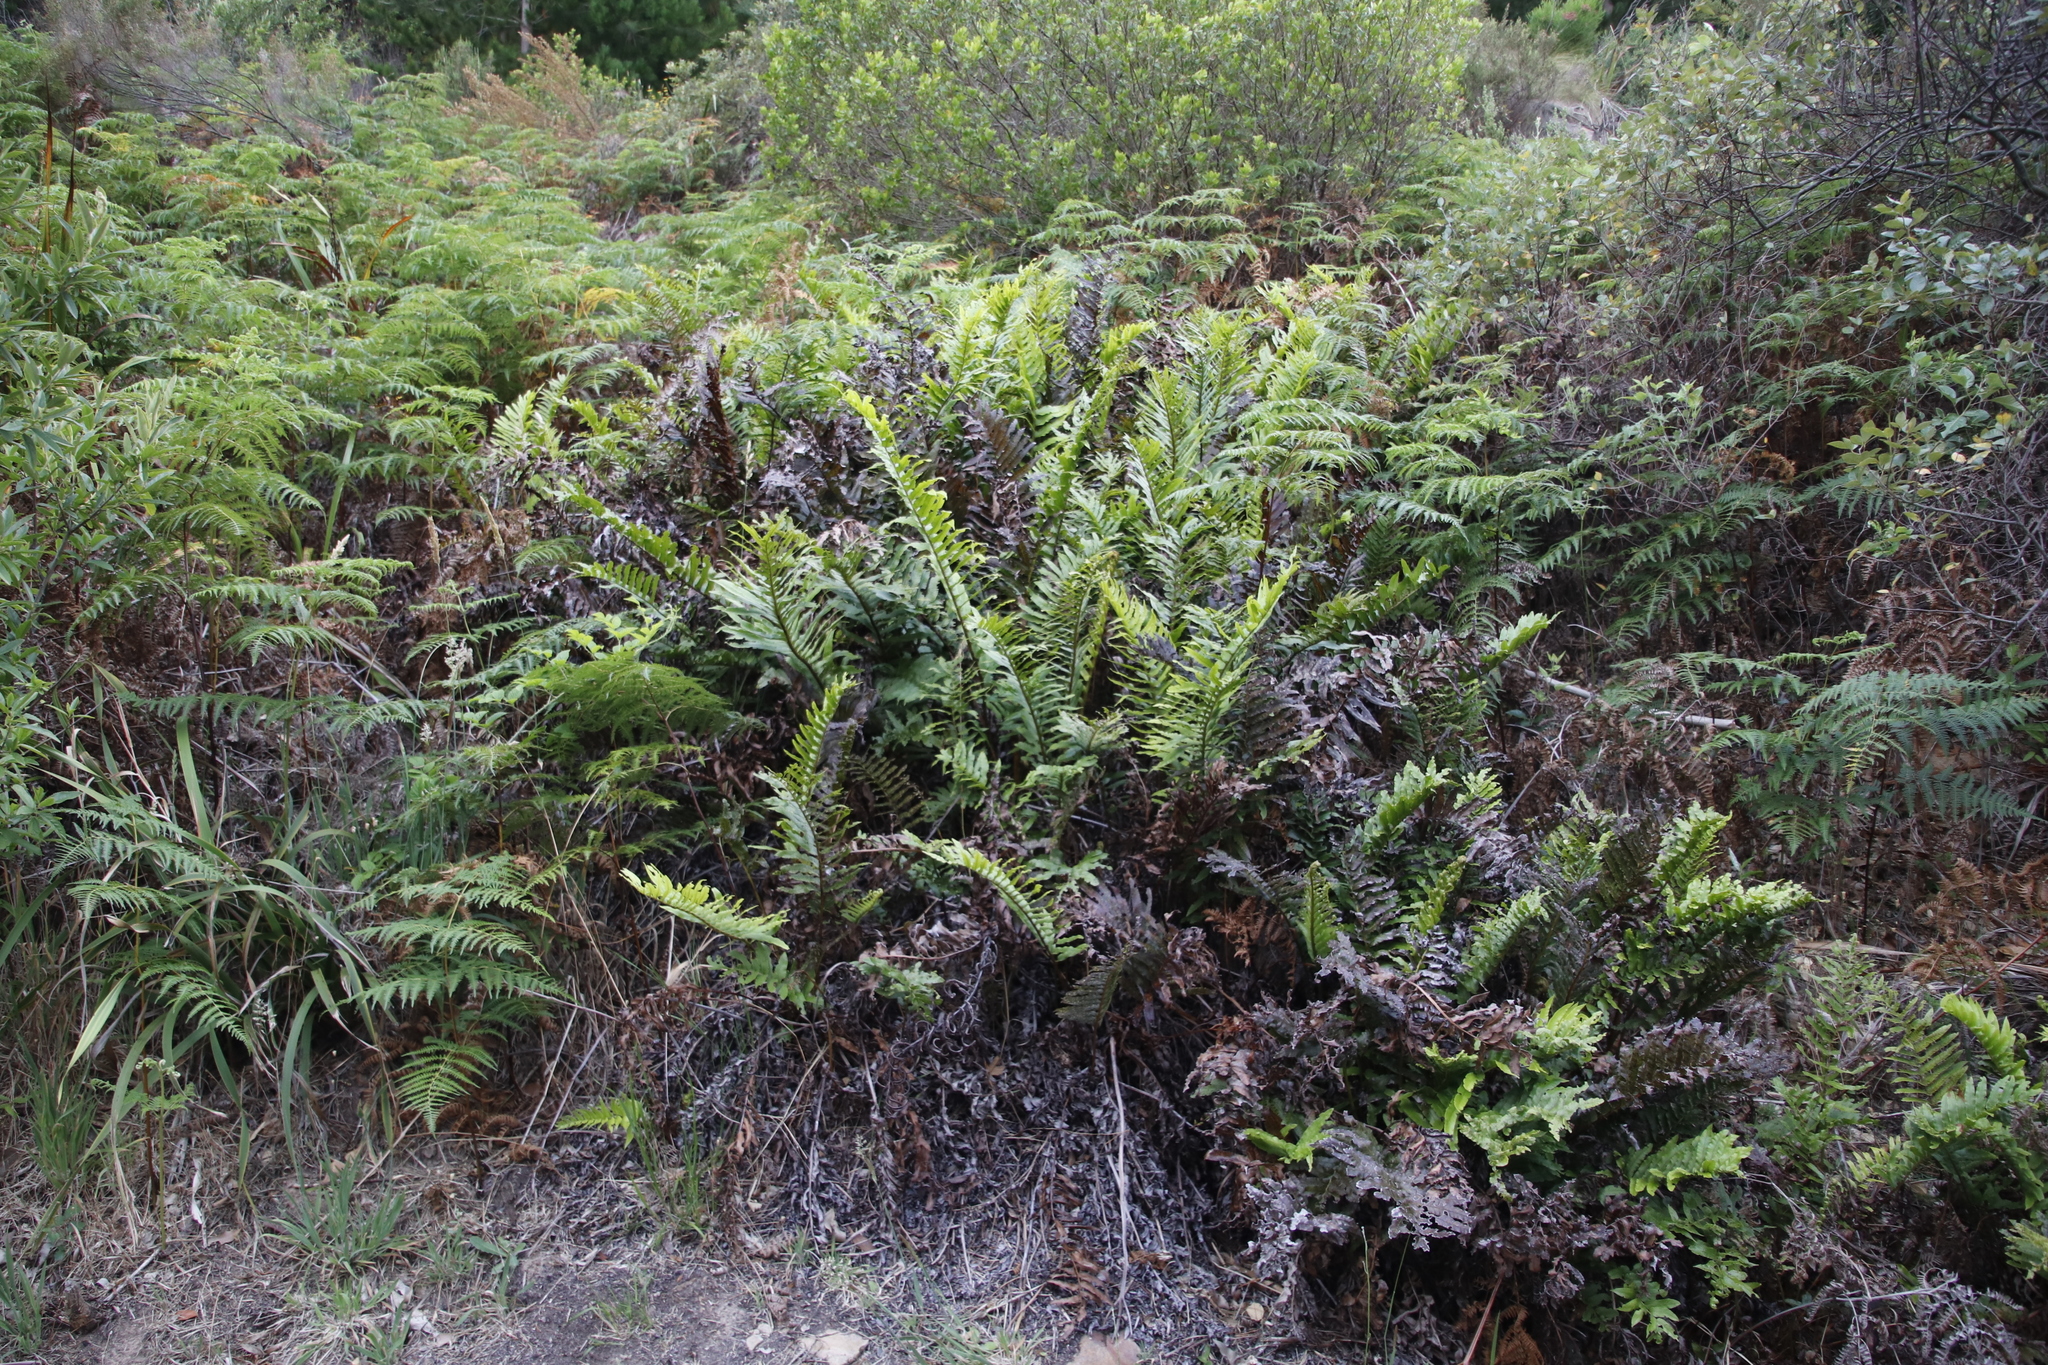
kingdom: Plantae
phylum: Tracheophyta
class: Polypodiopsida
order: Polypodiales
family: Blechnaceae
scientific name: Blechnaceae
